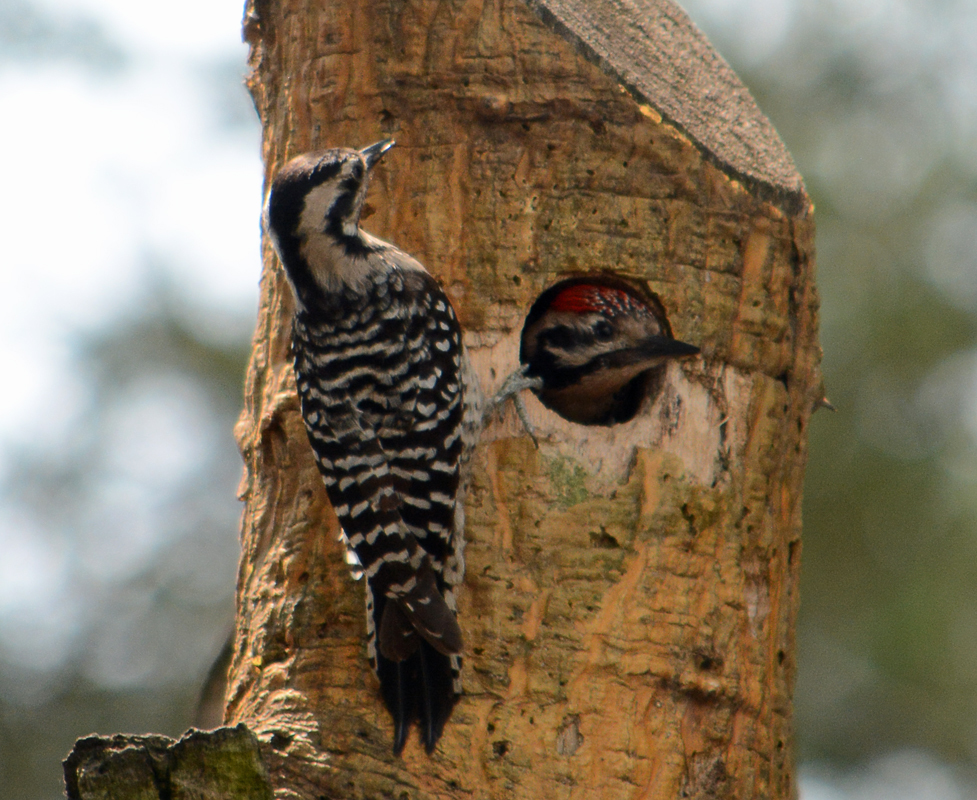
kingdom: Animalia
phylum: Chordata
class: Aves
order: Piciformes
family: Picidae
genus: Dryobates
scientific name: Dryobates scalaris
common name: Ladder-backed woodpecker
